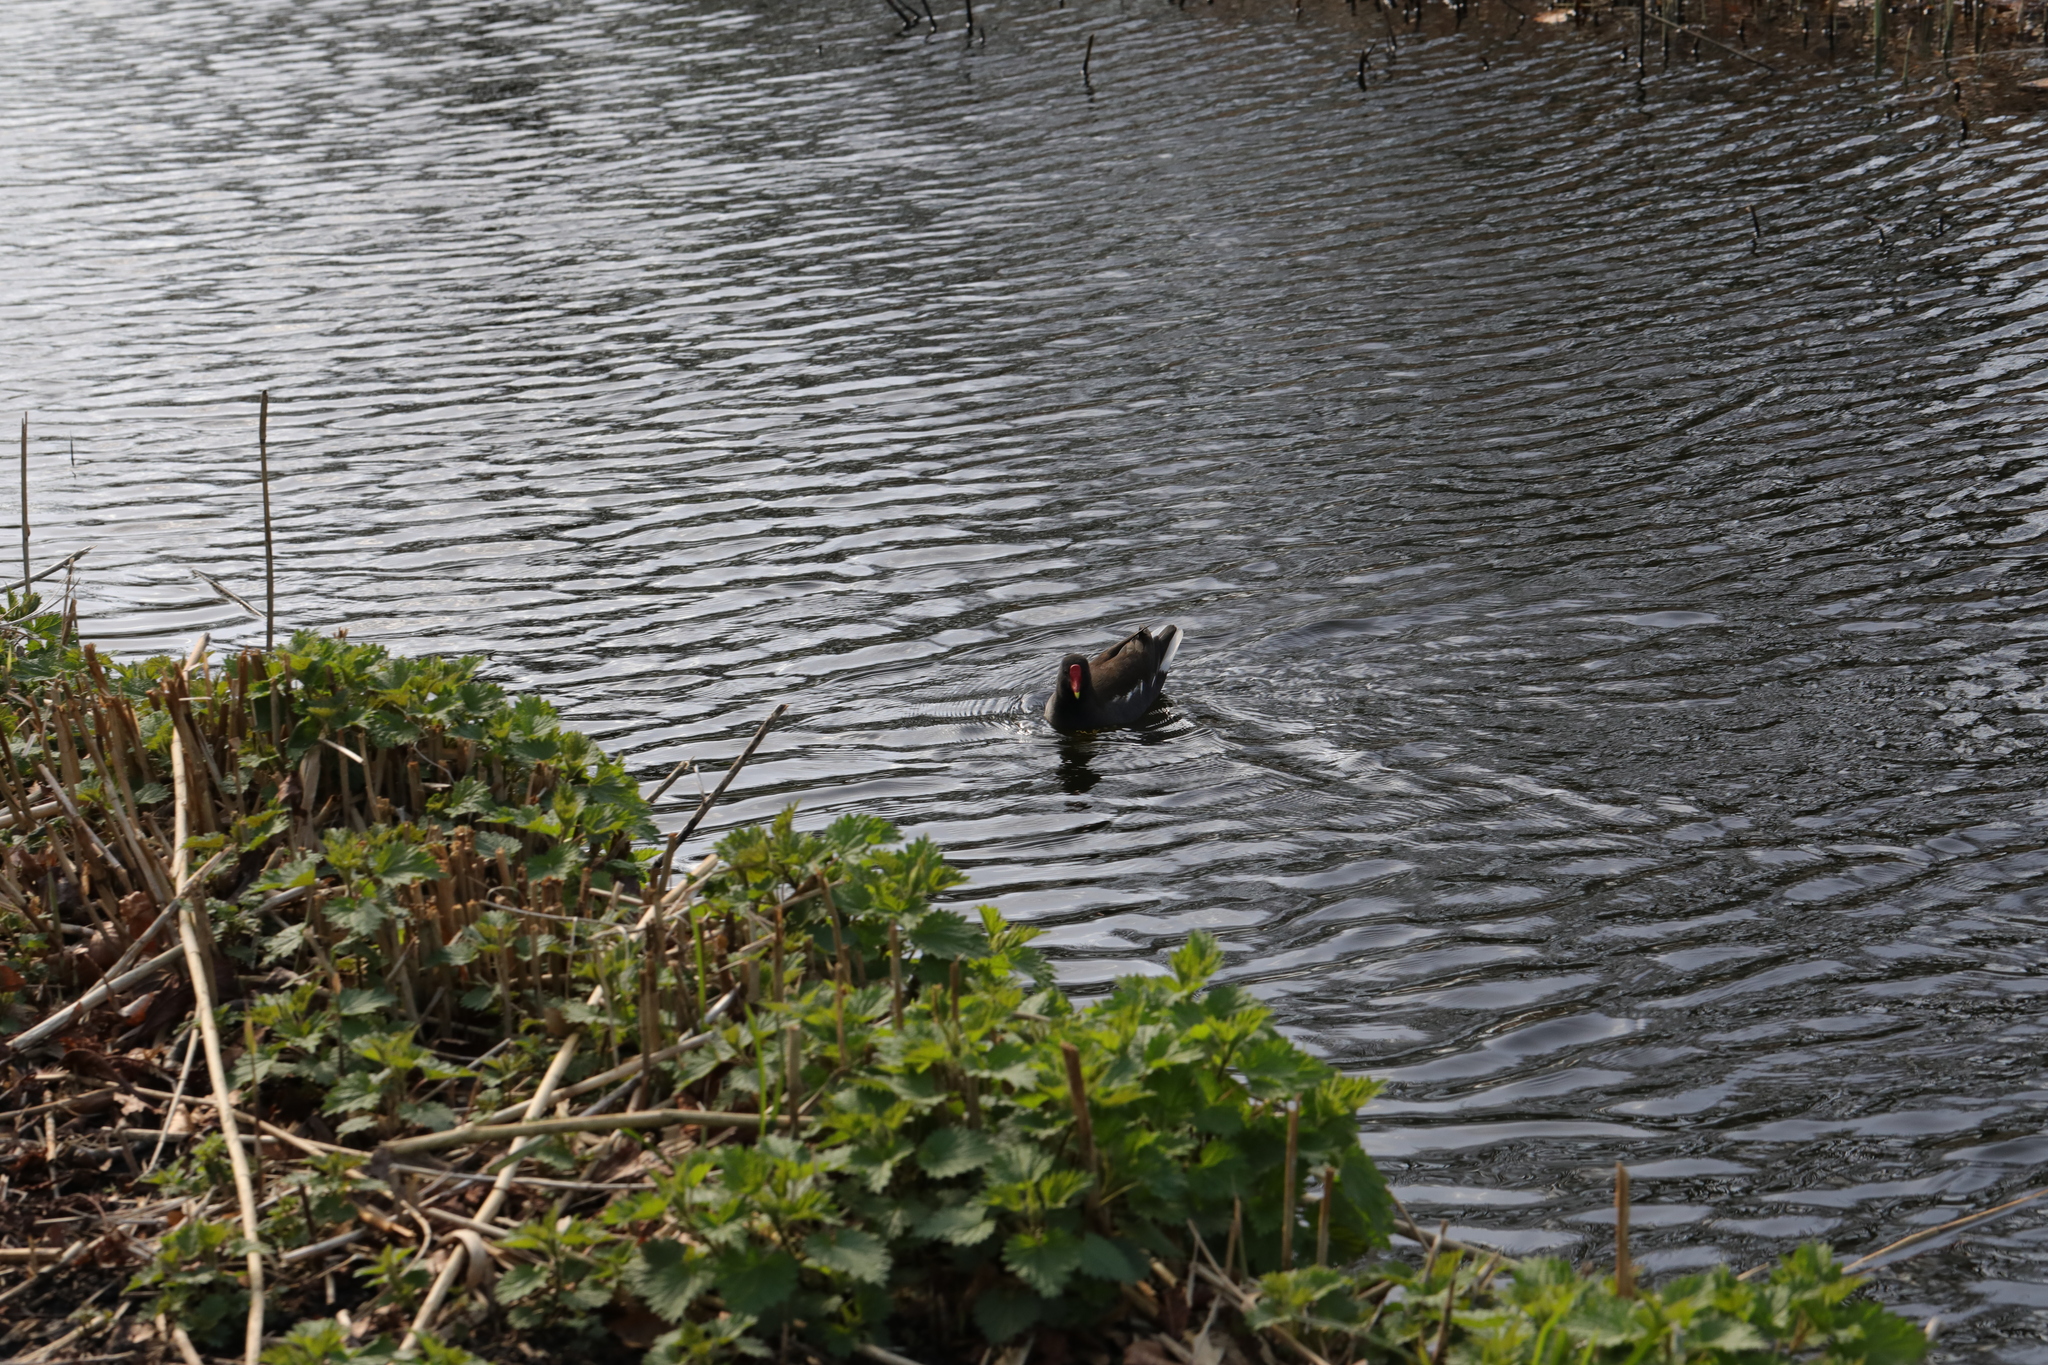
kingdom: Animalia
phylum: Chordata
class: Aves
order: Gruiformes
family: Rallidae
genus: Gallinula
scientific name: Gallinula chloropus
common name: Common moorhen
